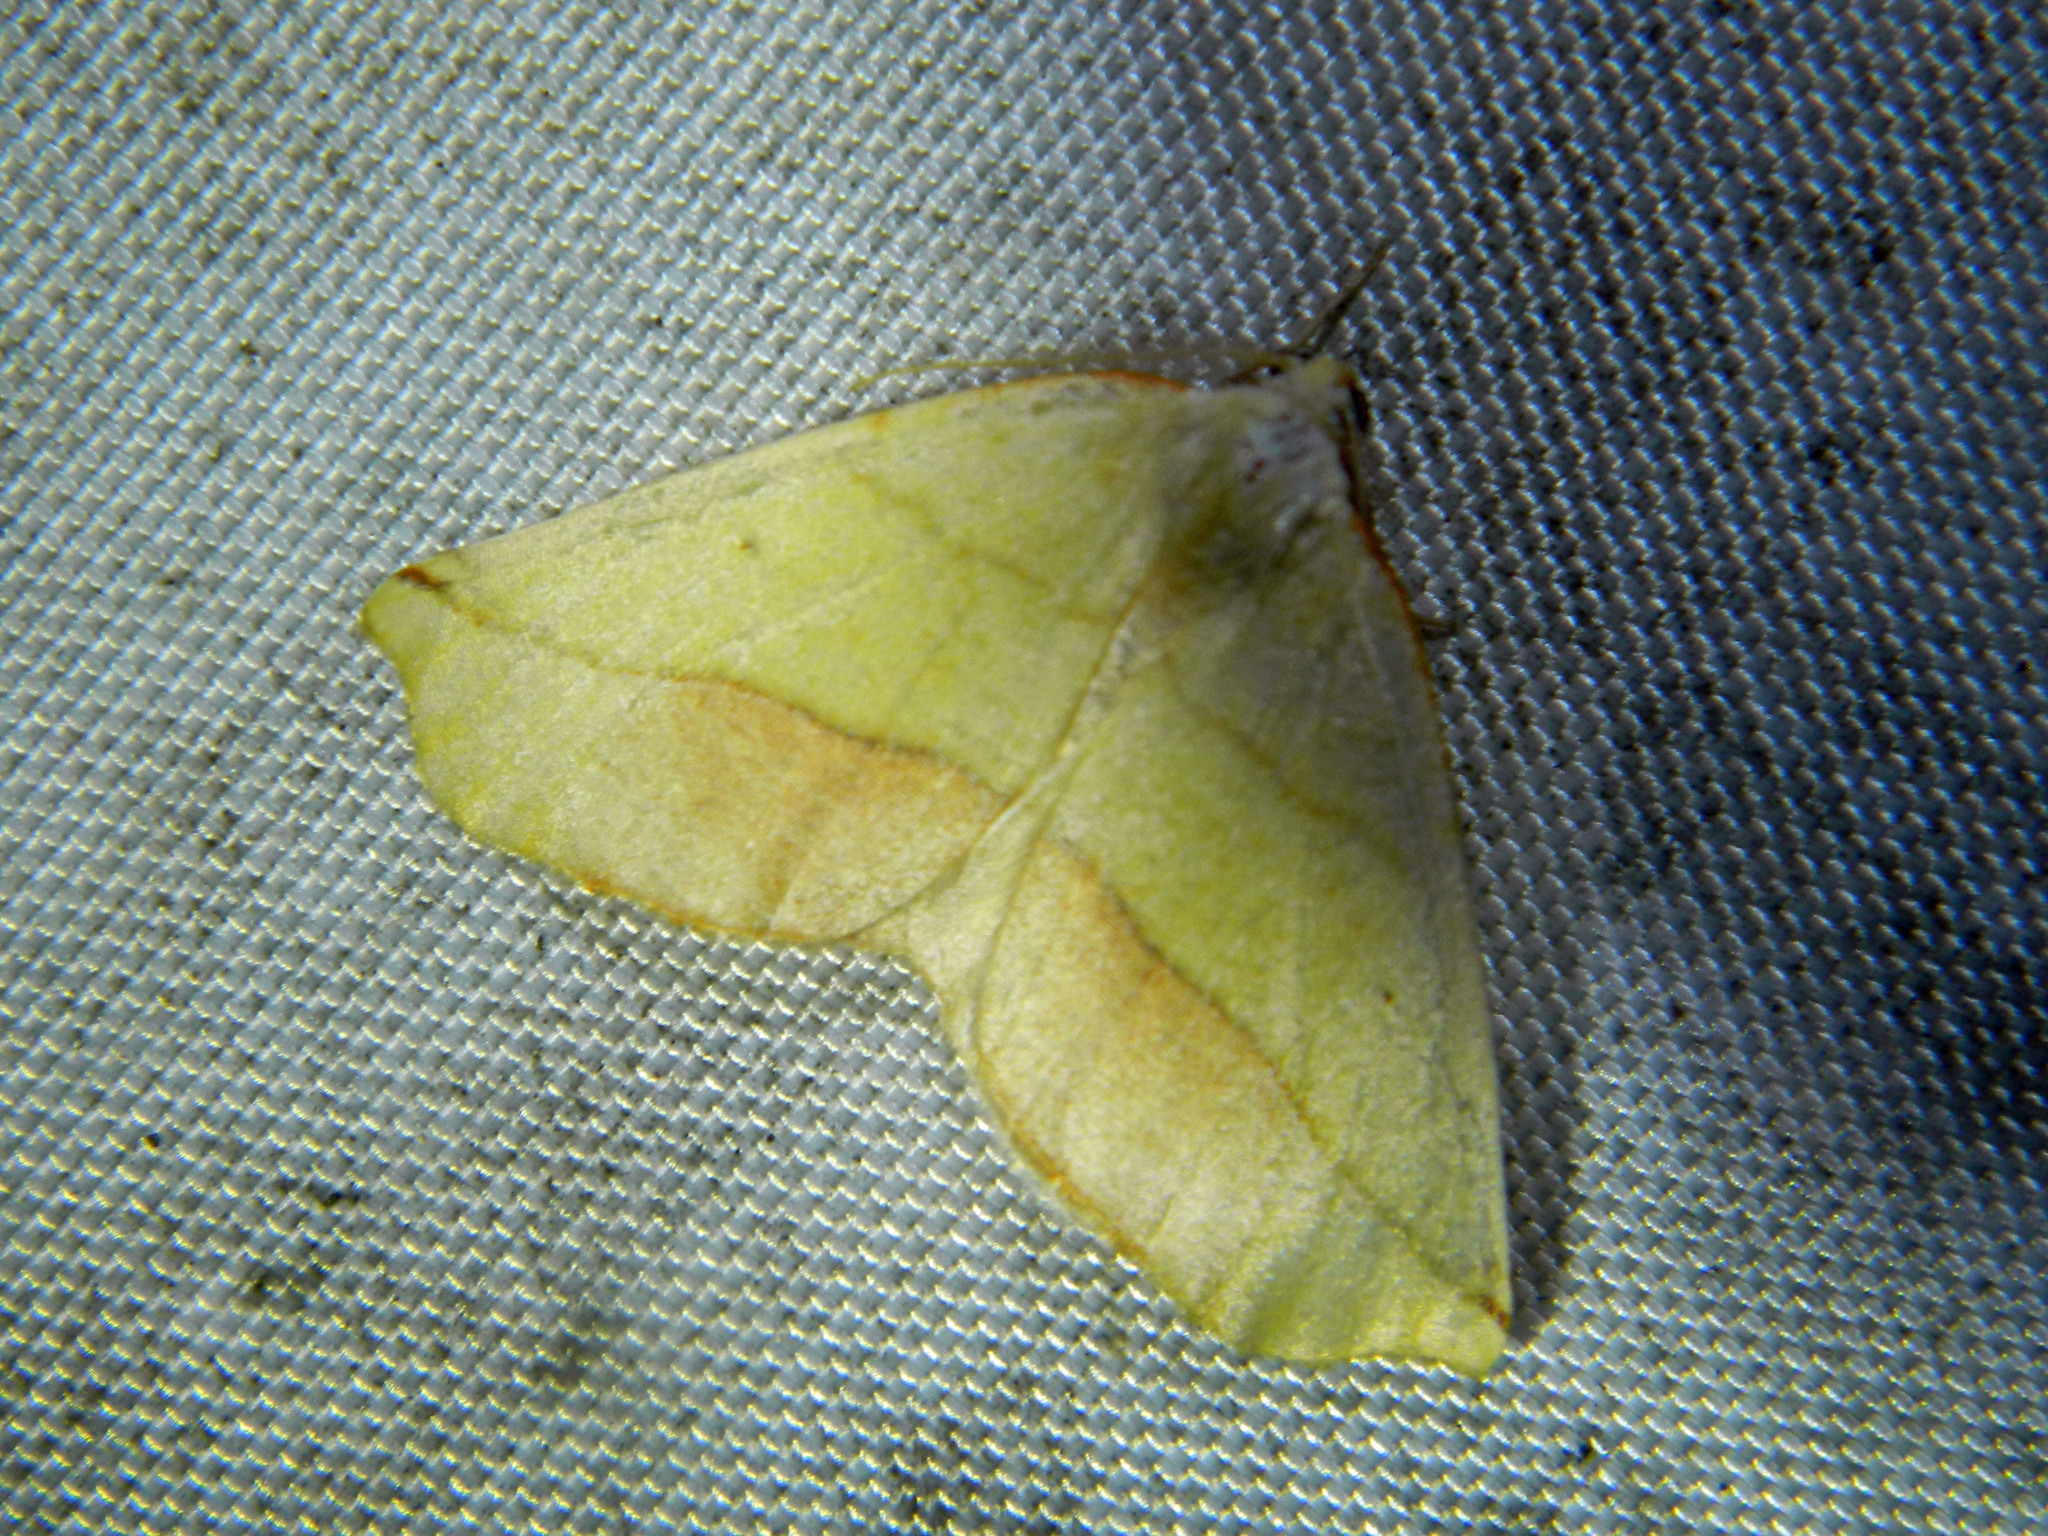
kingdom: Animalia
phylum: Arthropoda
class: Insecta
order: Lepidoptera
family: Geometridae
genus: Sicya
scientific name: Sicya macularia
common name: Sharp-lined yellow
